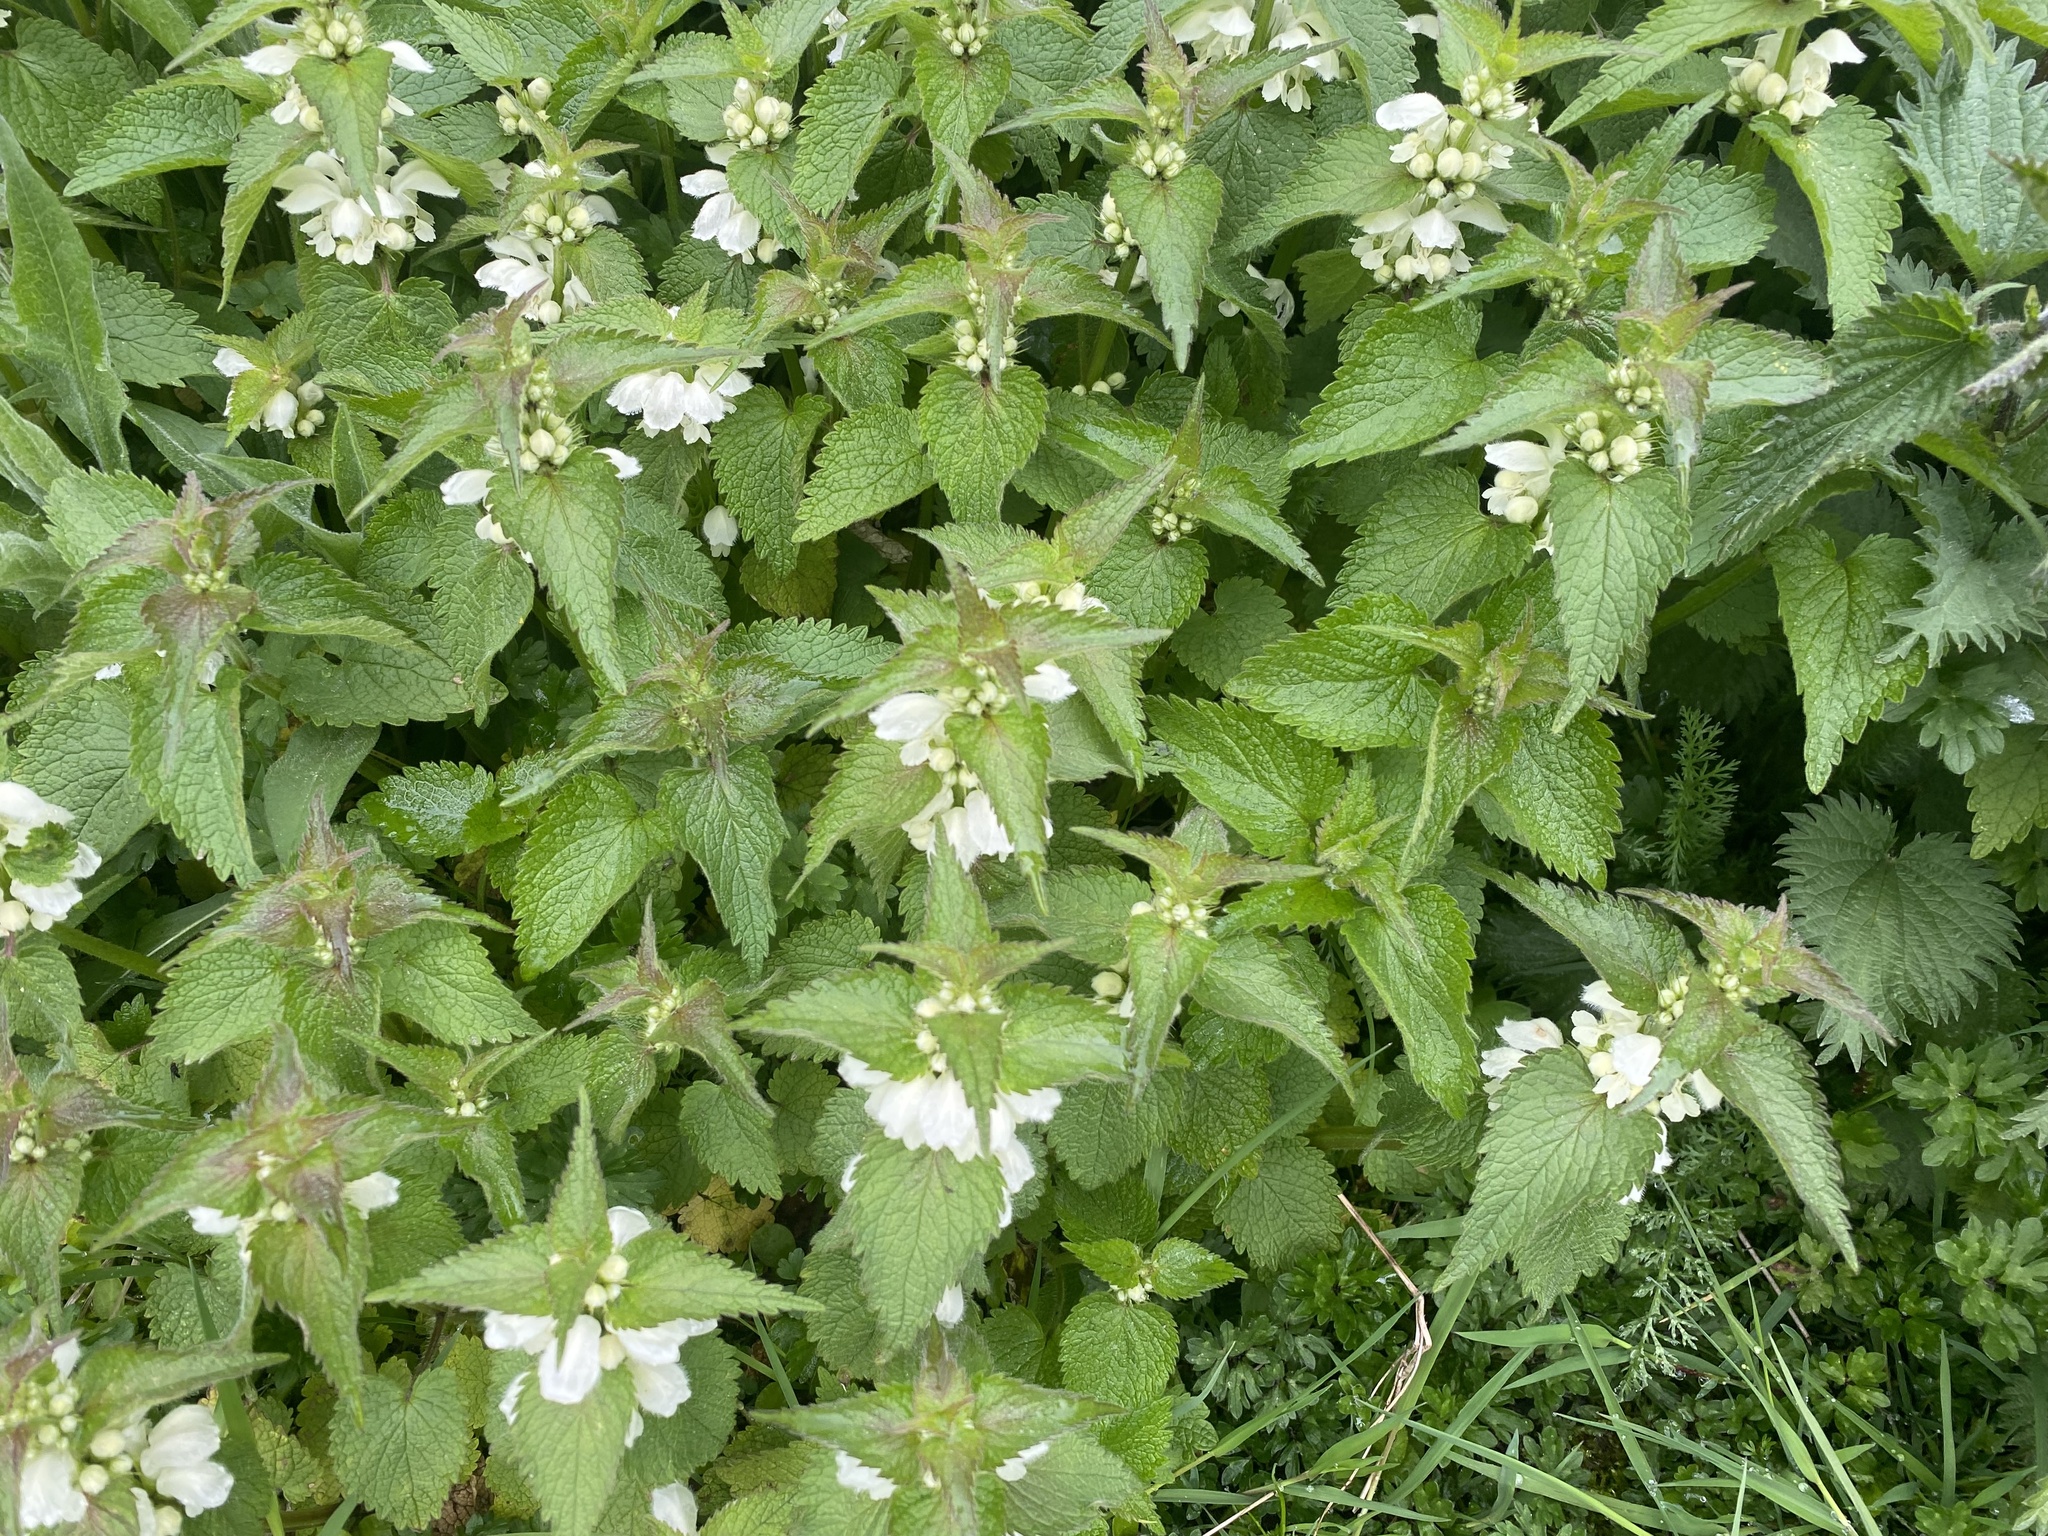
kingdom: Plantae
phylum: Tracheophyta
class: Magnoliopsida
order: Lamiales
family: Lamiaceae
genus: Lamium
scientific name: Lamium album
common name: White dead-nettle
